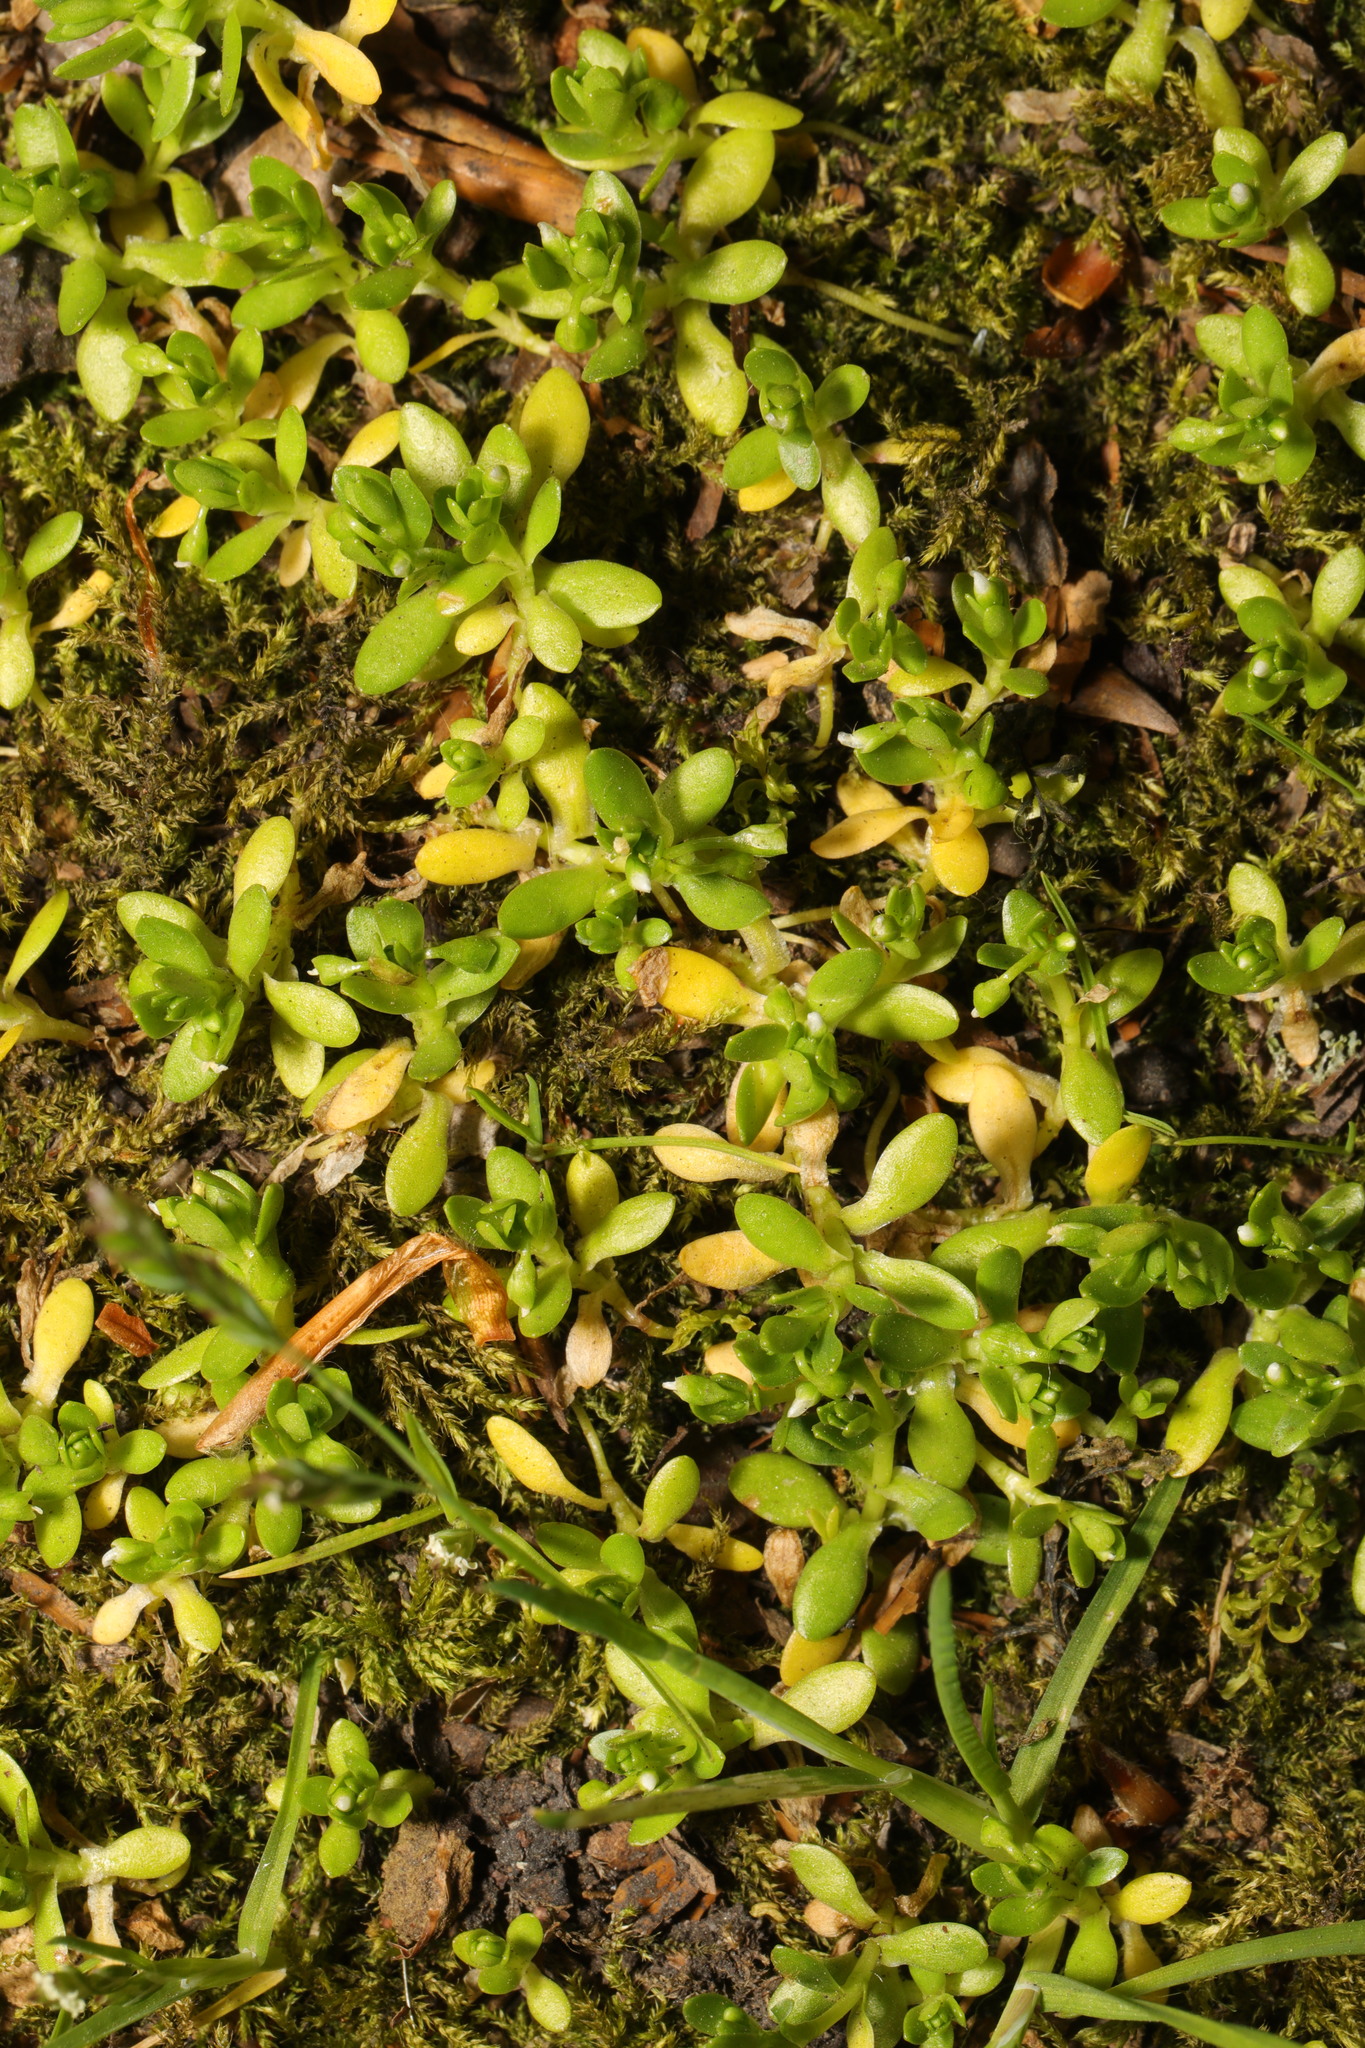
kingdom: Plantae
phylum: Tracheophyta
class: Magnoliopsida
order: Caryophyllales
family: Montiaceae
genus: Montia
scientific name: Montia fontana
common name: Blinks
